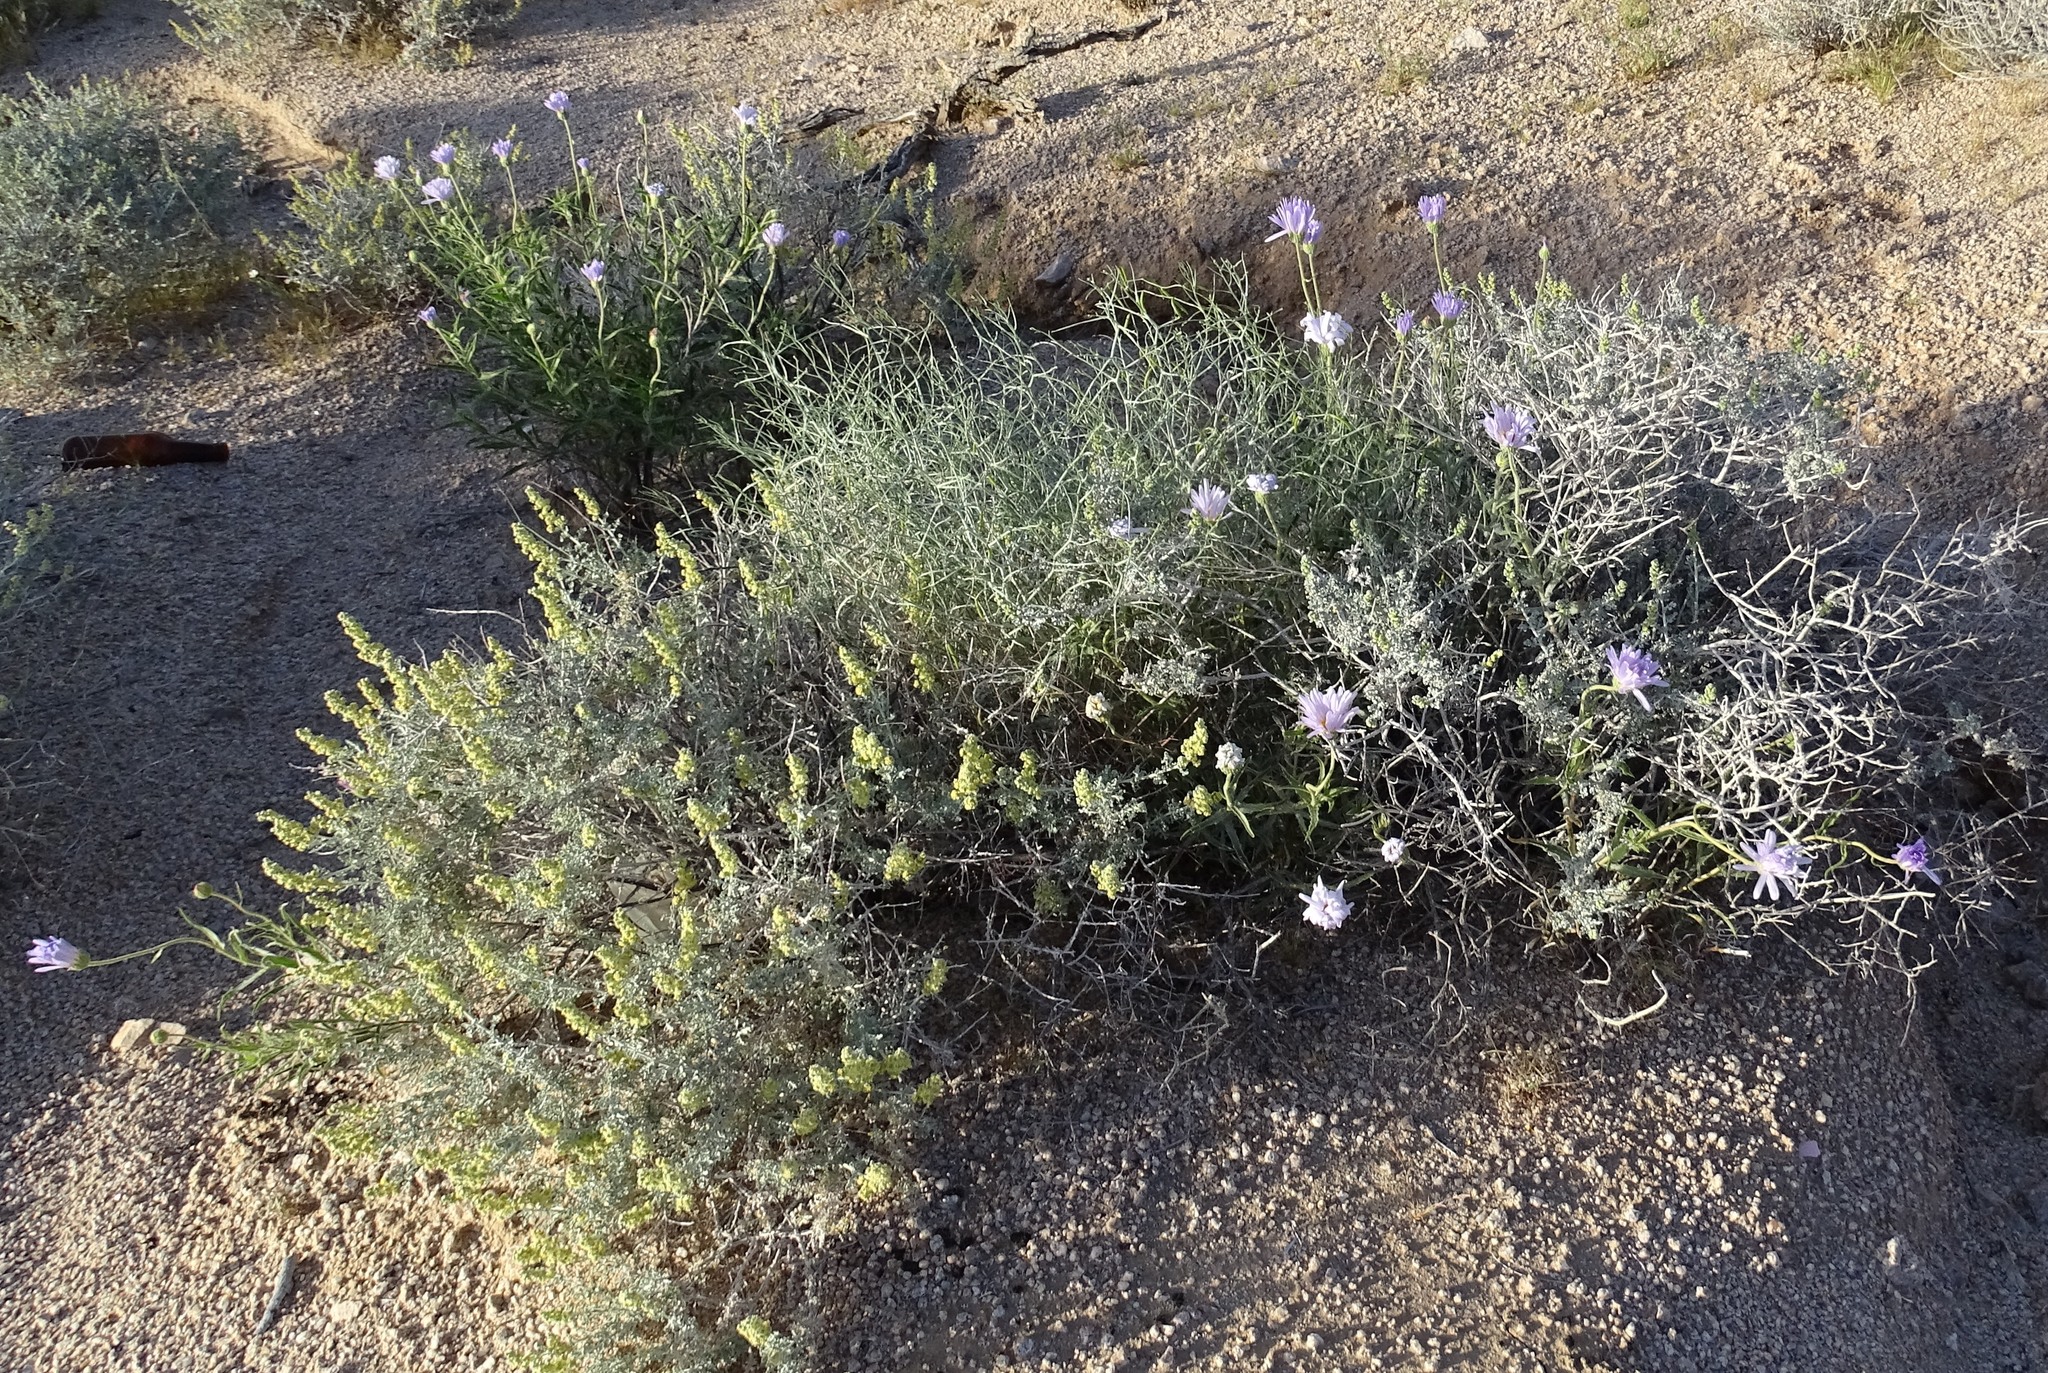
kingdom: Plantae
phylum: Tracheophyta
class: Magnoliopsida
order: Asterales
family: Asteraceae
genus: Xylorhiza
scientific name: Xylorhiza tortifolia
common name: Hurt-leaf woody-aster
